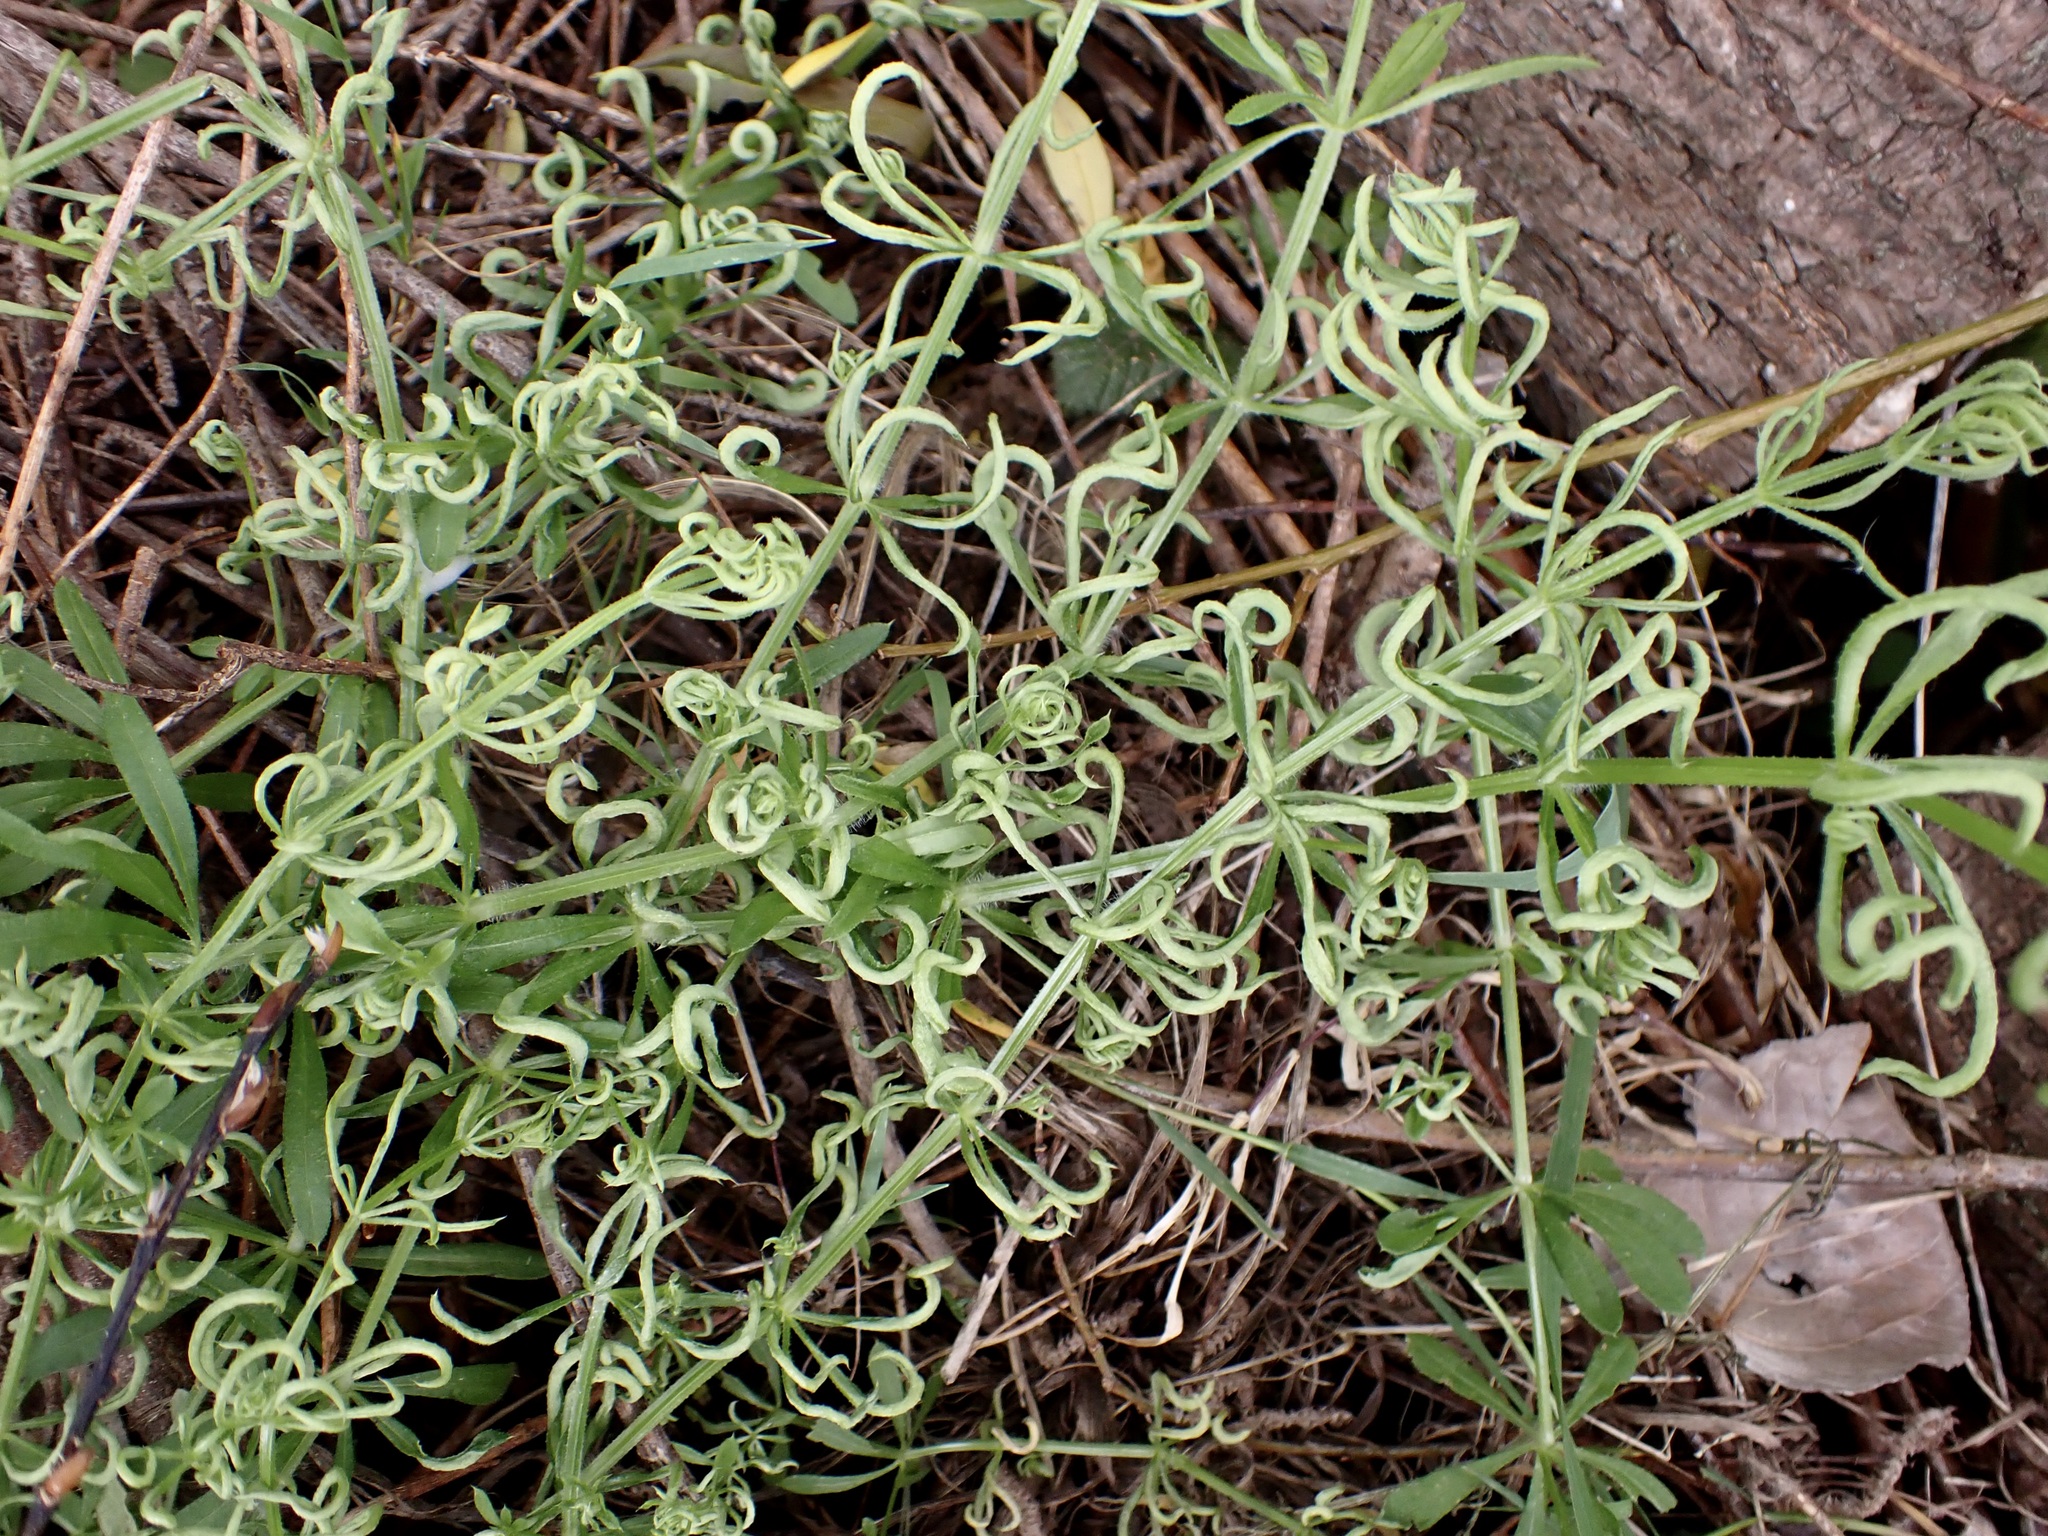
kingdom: Animalia
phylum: Arthropoda
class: Arachnida
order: Trombidiformes
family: Eriophyidae
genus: Cecidophyes
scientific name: Cecidophyes rouhollahi
